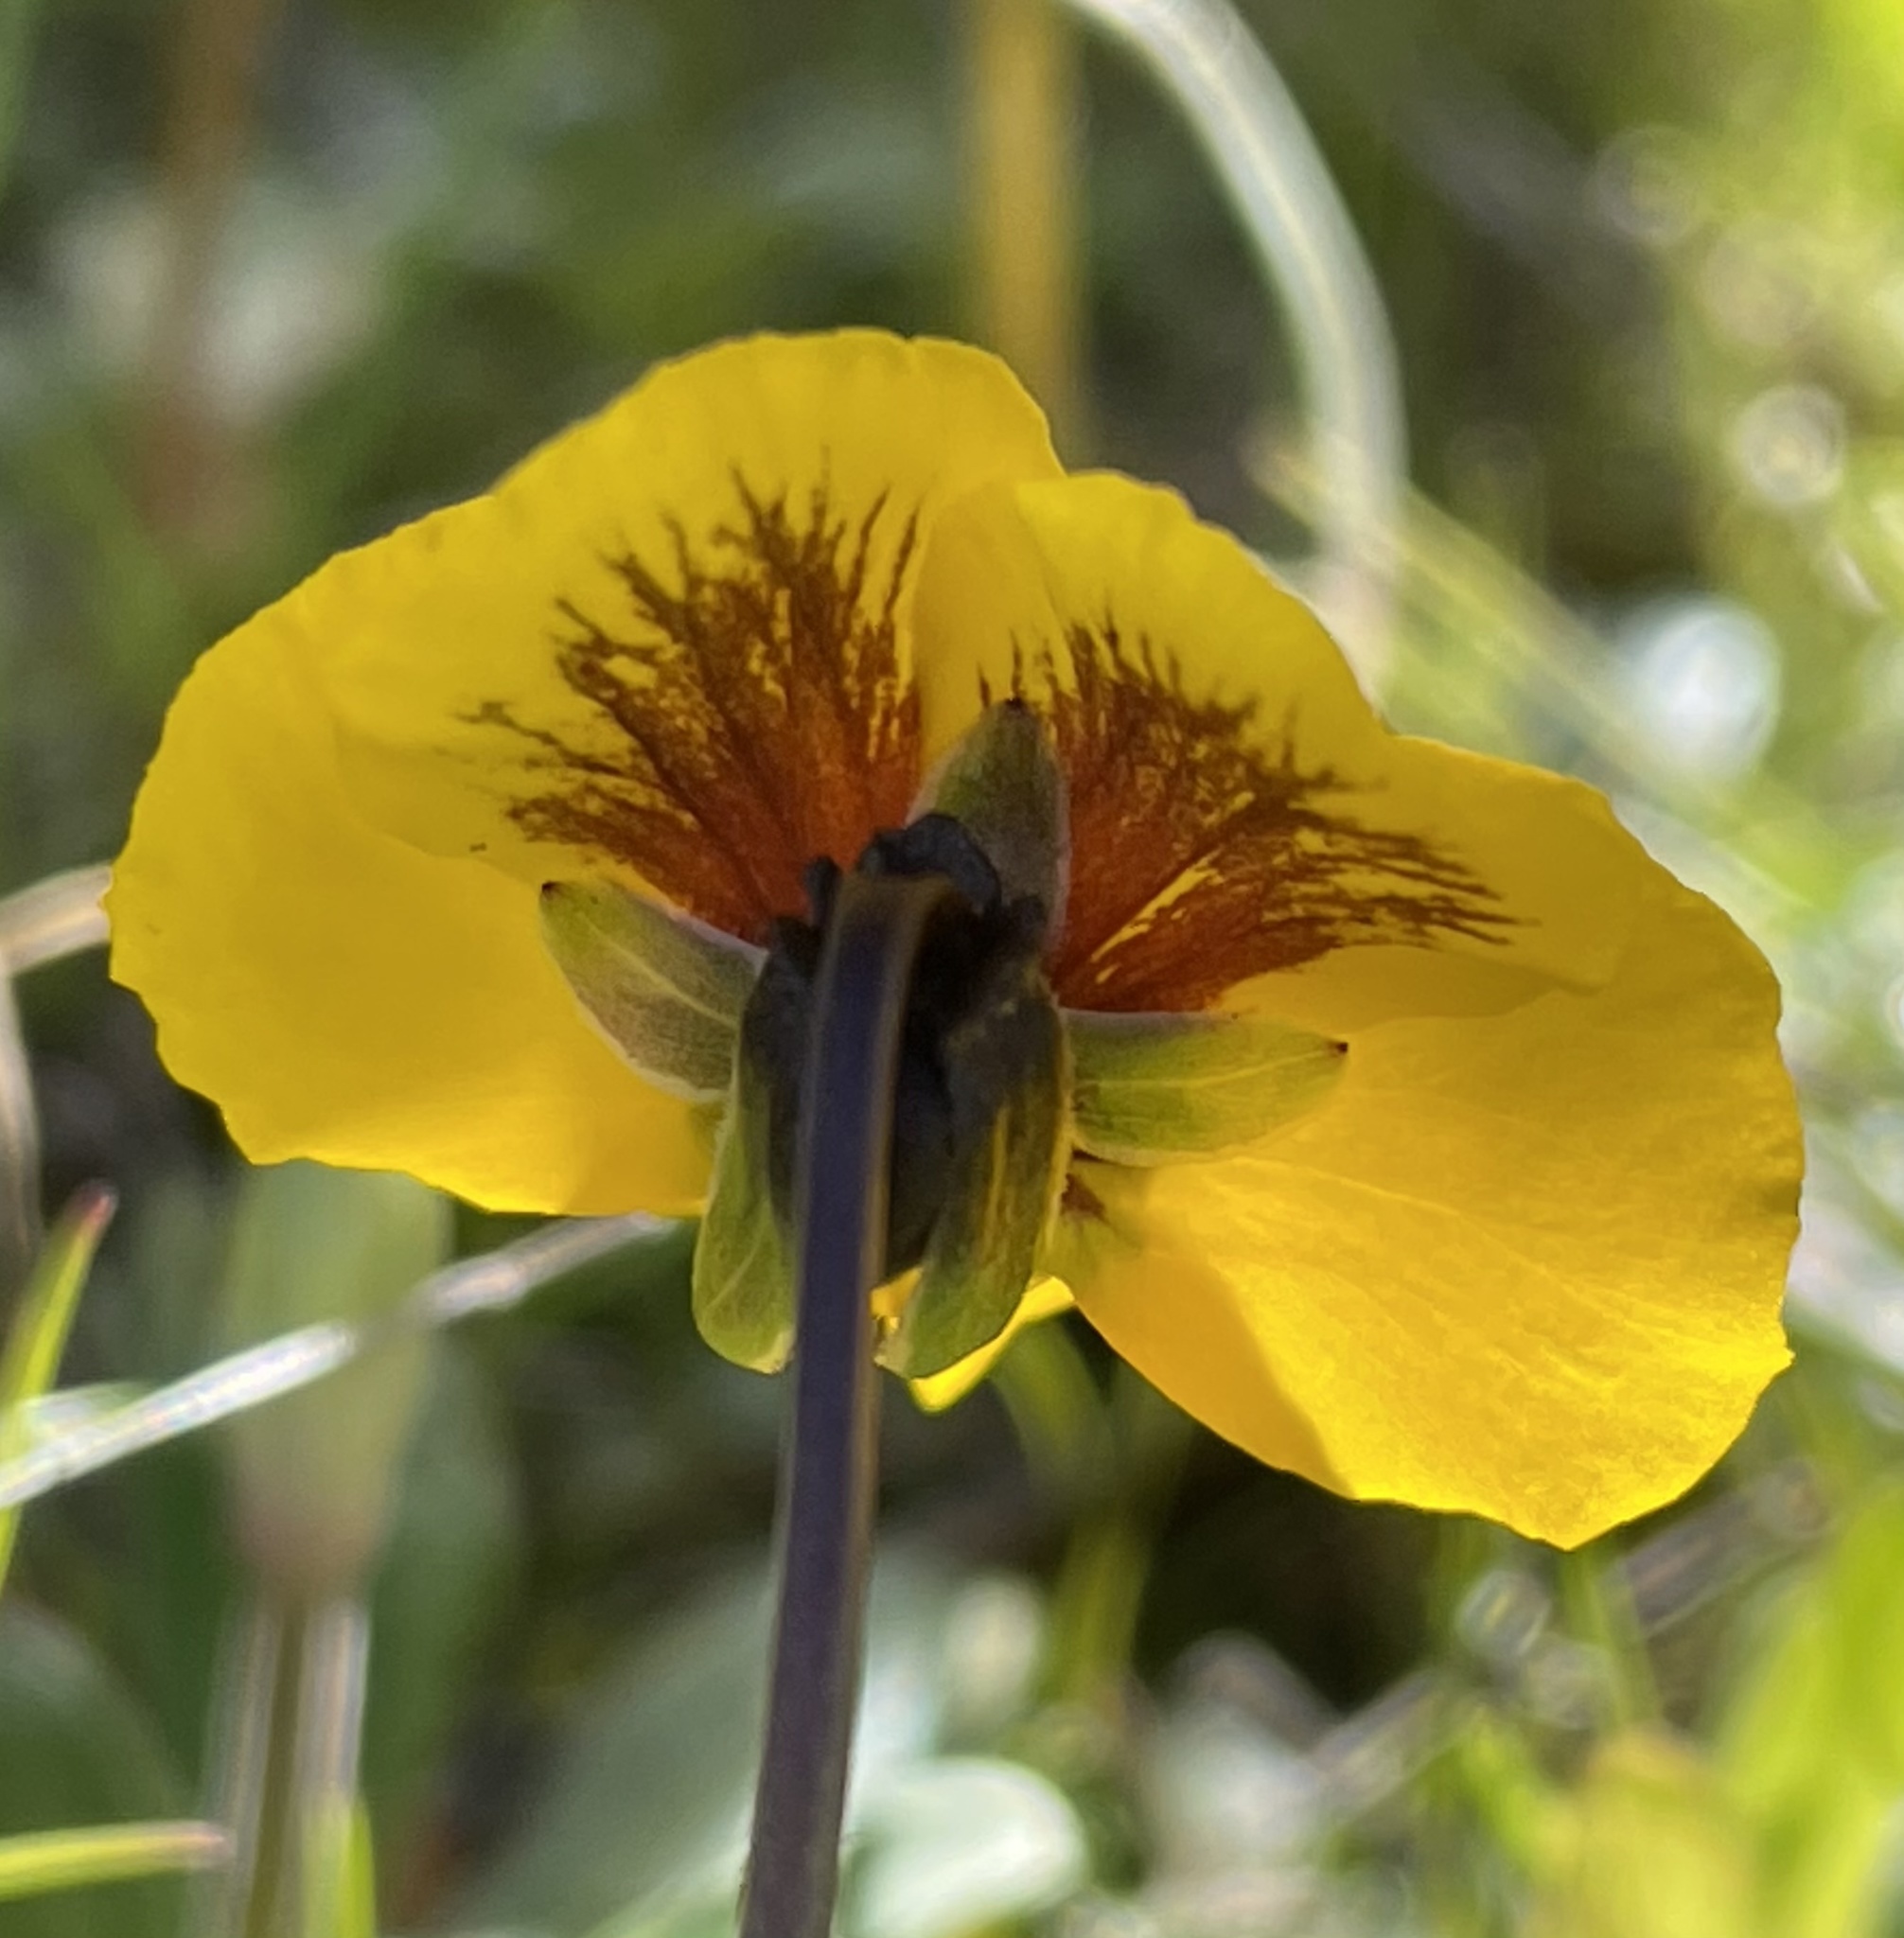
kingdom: Plantae
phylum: Tracheophyta
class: Magnoliopsida
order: Malpighiales
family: Violaceae
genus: Viola
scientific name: Viola pedunculata
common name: California golden violet
